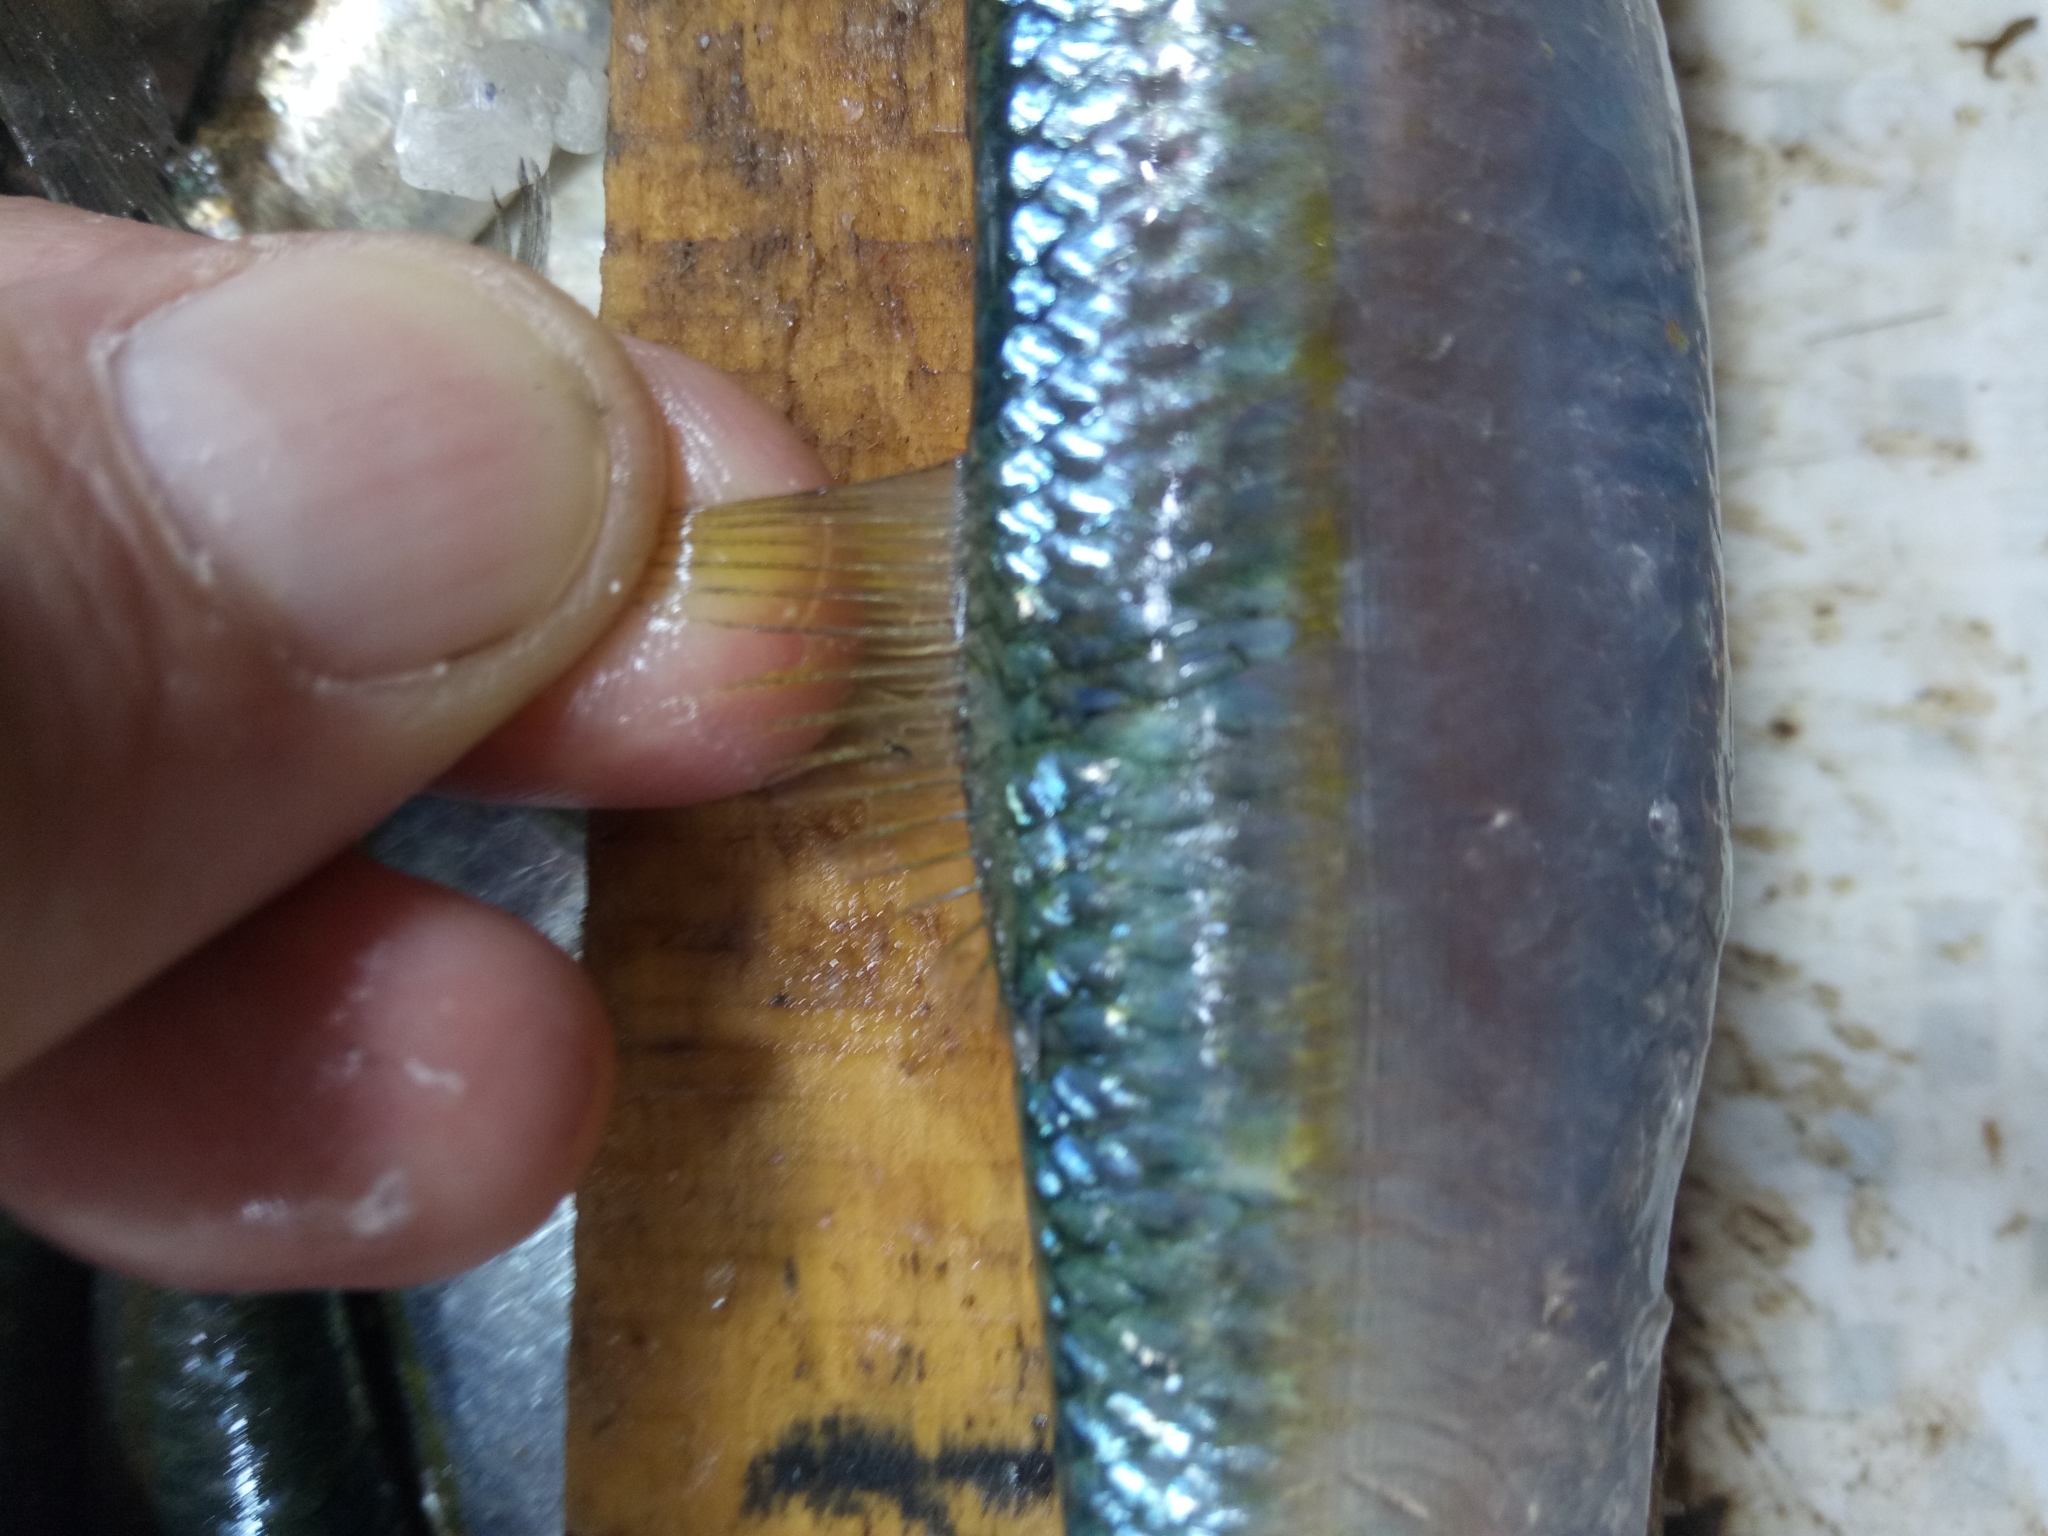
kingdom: Animalia
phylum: Chordata
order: Clupeiformes
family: Clupeidae
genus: Sardinella
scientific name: Sardinella aurita
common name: Round sardinella
